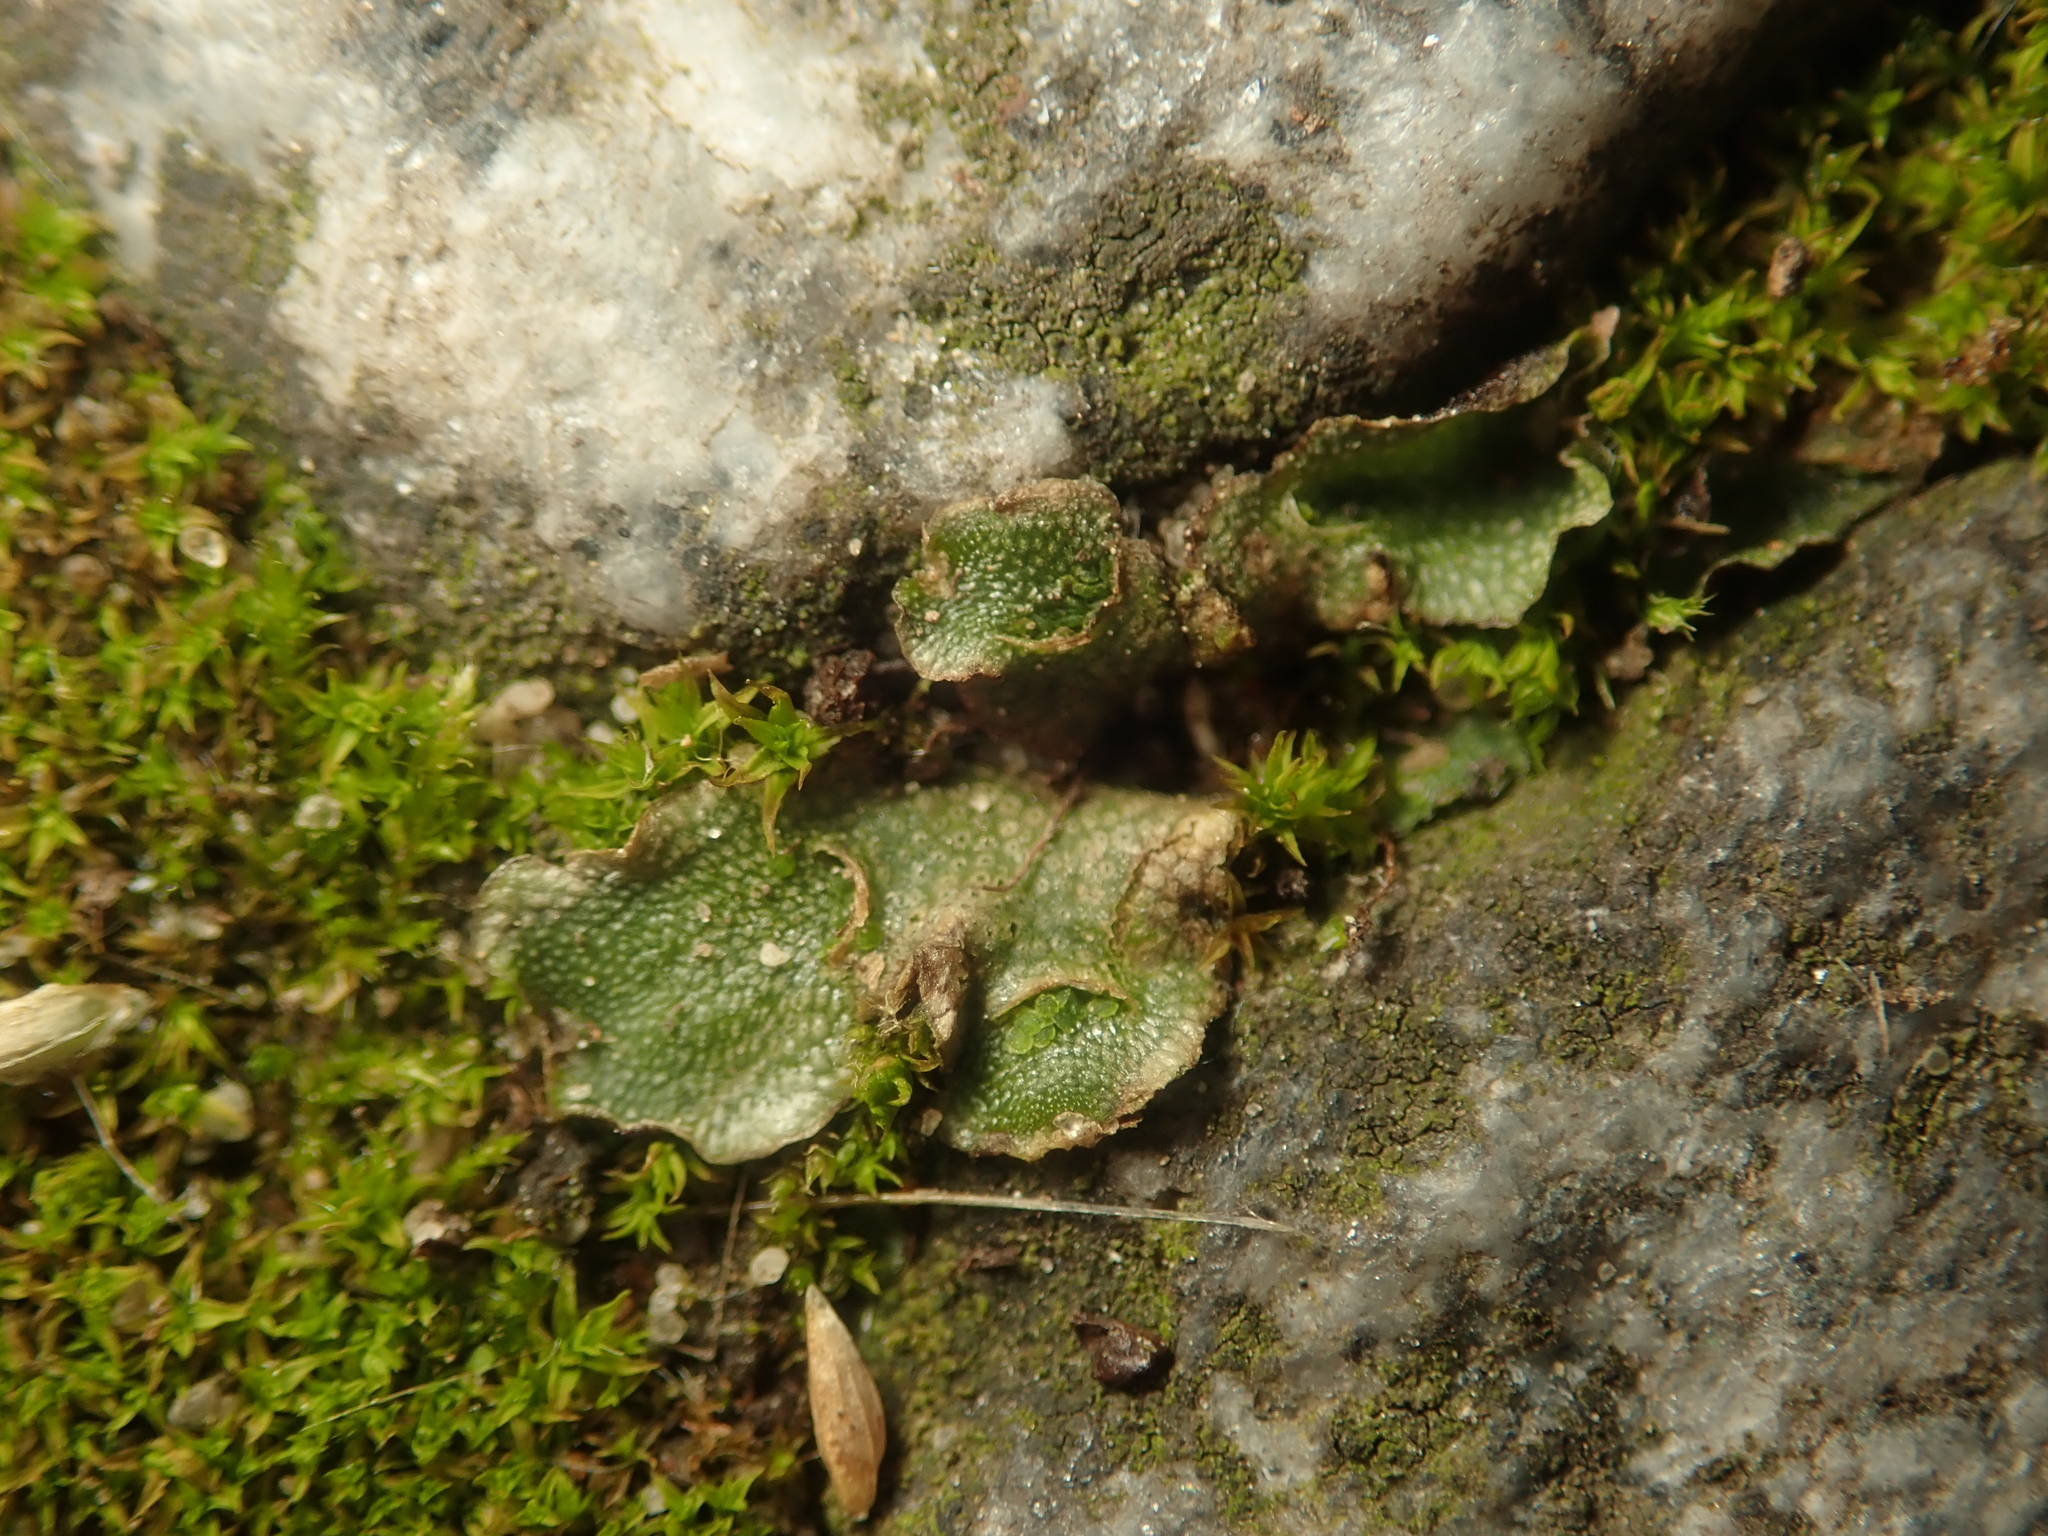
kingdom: Plantae
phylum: Marchantiophyta
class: Marchantiopsida
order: Lunulariales
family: Lunulariaceae
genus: Lunularia
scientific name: Lunularia cruciata
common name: Crescent-cup liverwort
